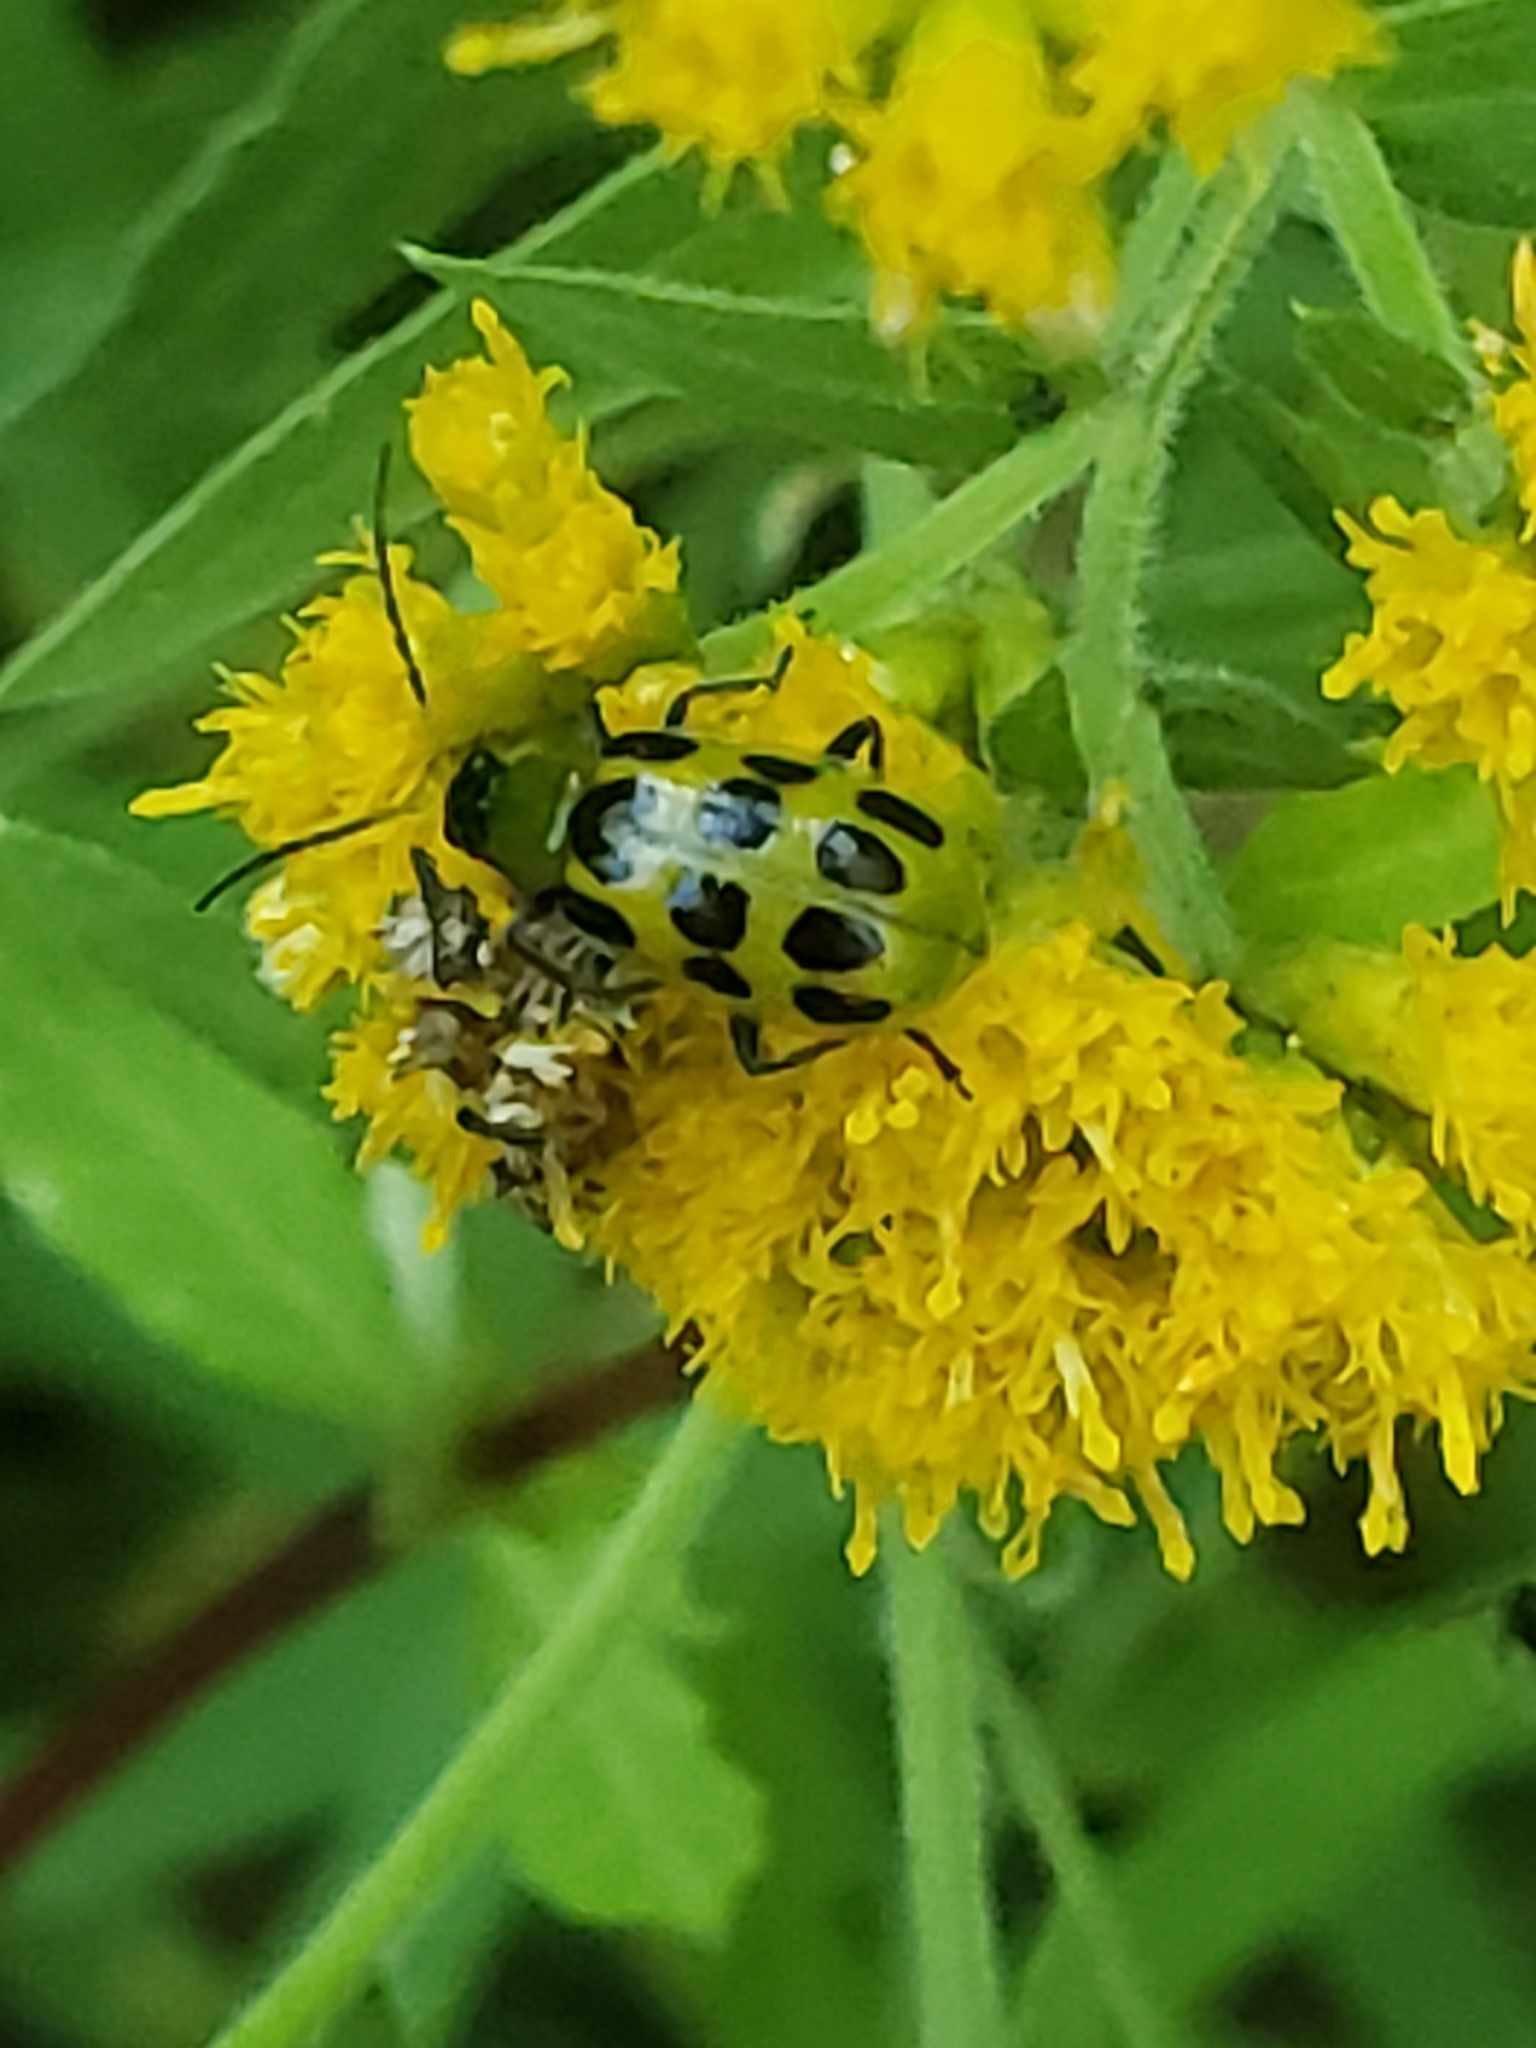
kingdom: Animalia
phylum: Arthropoda
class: Insecta
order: Coleoptera
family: Chrysomelidae
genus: Diabrotica
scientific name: Diabrotica undecimpunctata
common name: Spotted cucumber beetle
